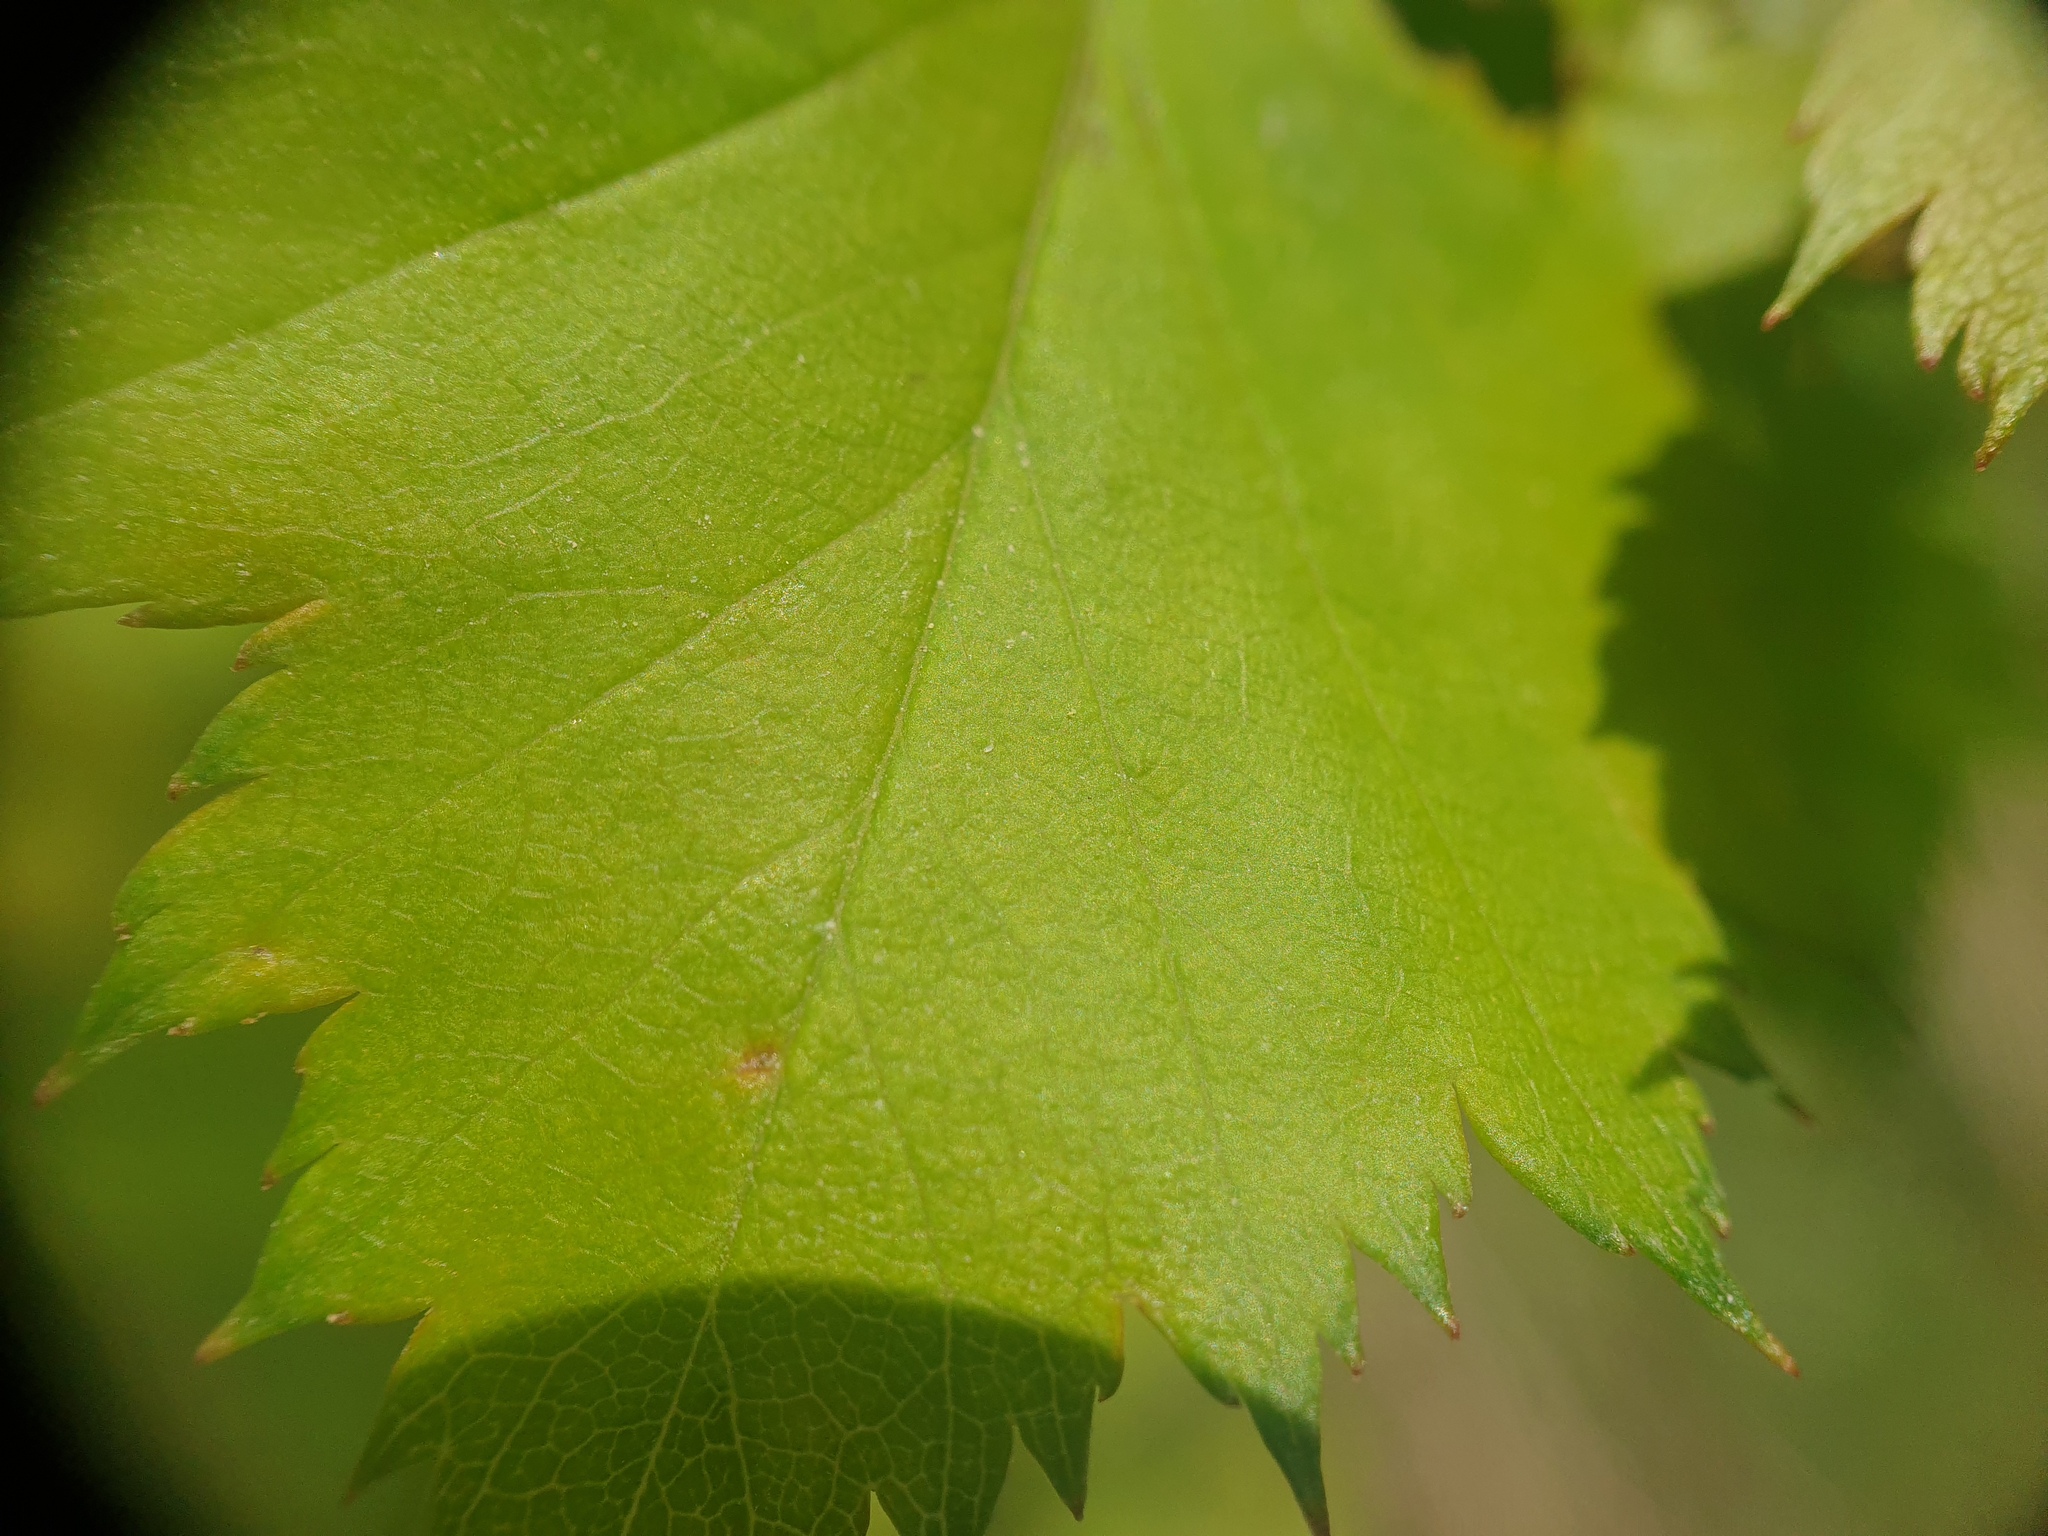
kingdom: Plantae
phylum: Tracheophyta
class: Magnoliopsida
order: Rosales
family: Rosaceae
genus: Crataegus
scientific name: Crataegus pruinosa
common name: Waxy-fruit hawthorn
